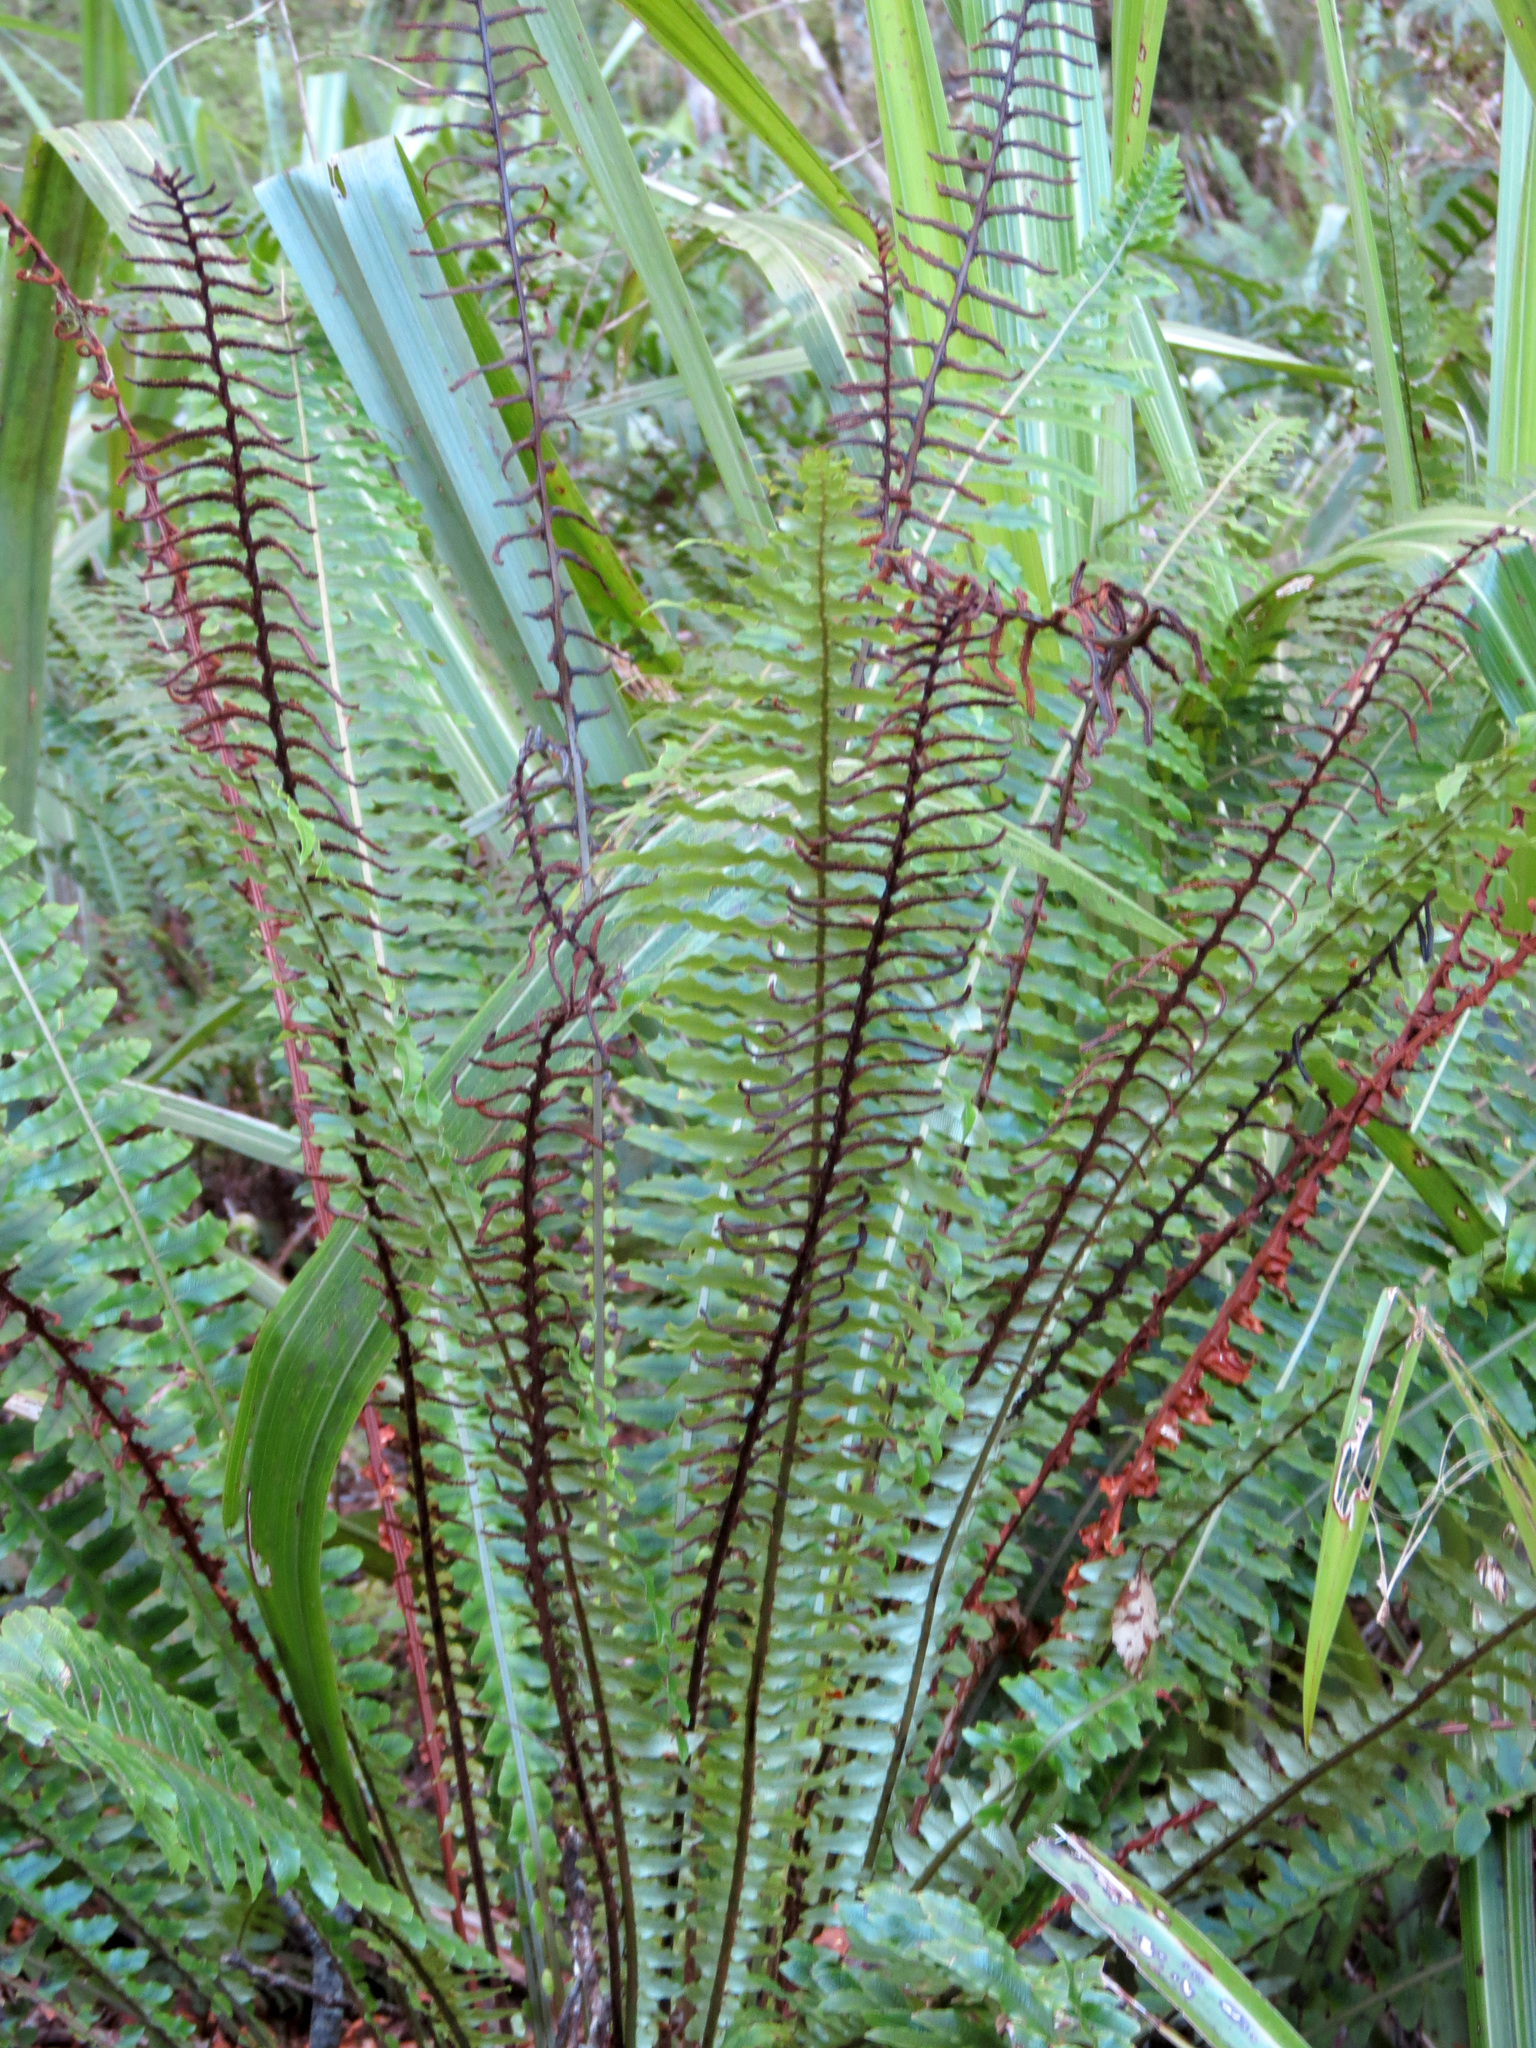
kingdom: Plantae
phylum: Tracheophyta
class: Polypodiopsida
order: Polypodiales
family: Blechnaceae
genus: Lomaria
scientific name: Lomaria discolor
